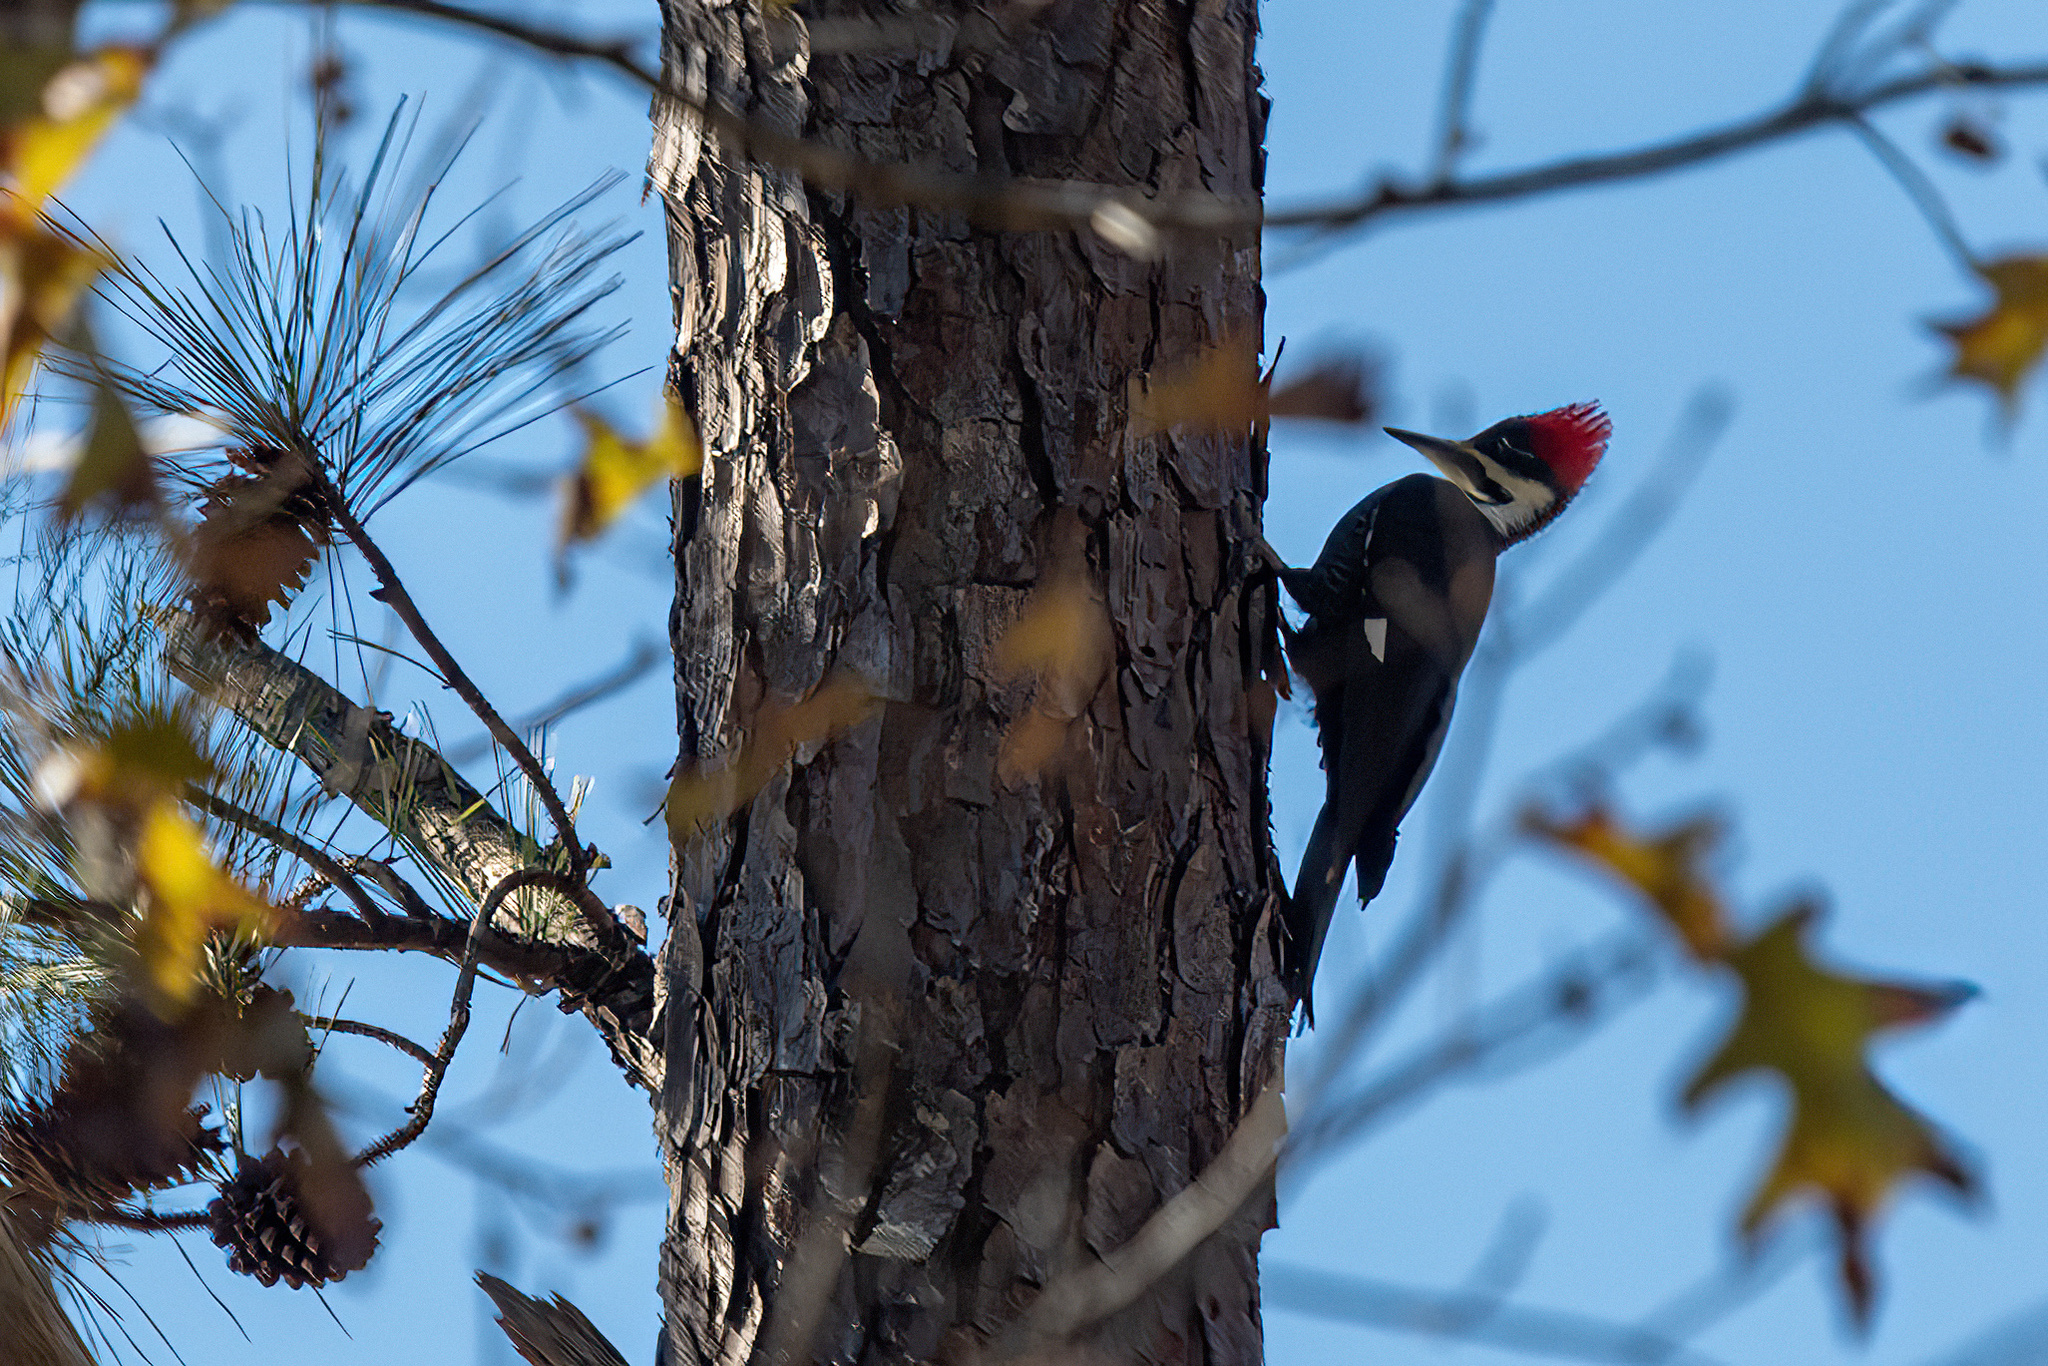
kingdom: Animalia
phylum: Chordata
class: Aves
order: Piciformes
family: Picidae
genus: Dryocopus
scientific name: Dryocopus pileatus
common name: Pileated woodpecker
